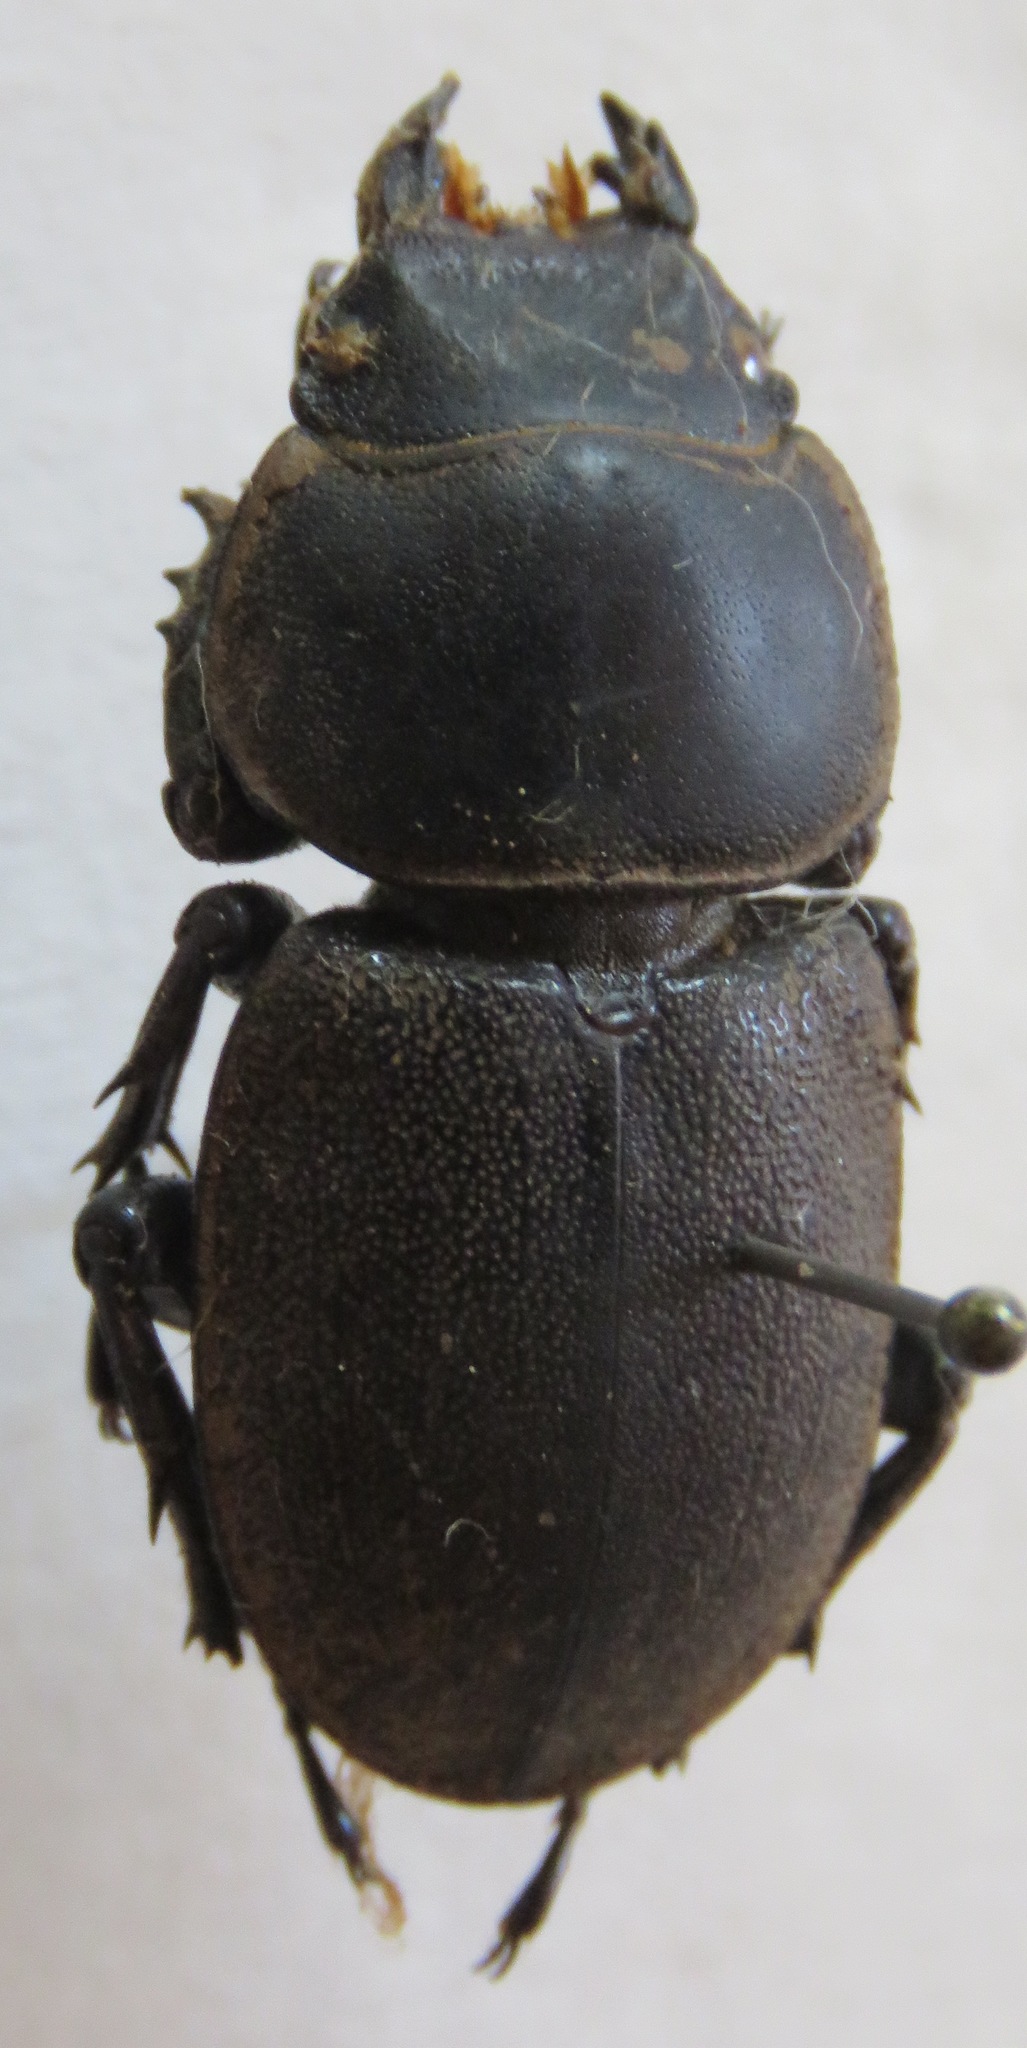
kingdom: Animalia
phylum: Arthropoda
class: Insecta
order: Coleoptera
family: Lucanidae
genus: Apterodorcus
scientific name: Apterodorcus bacchus
